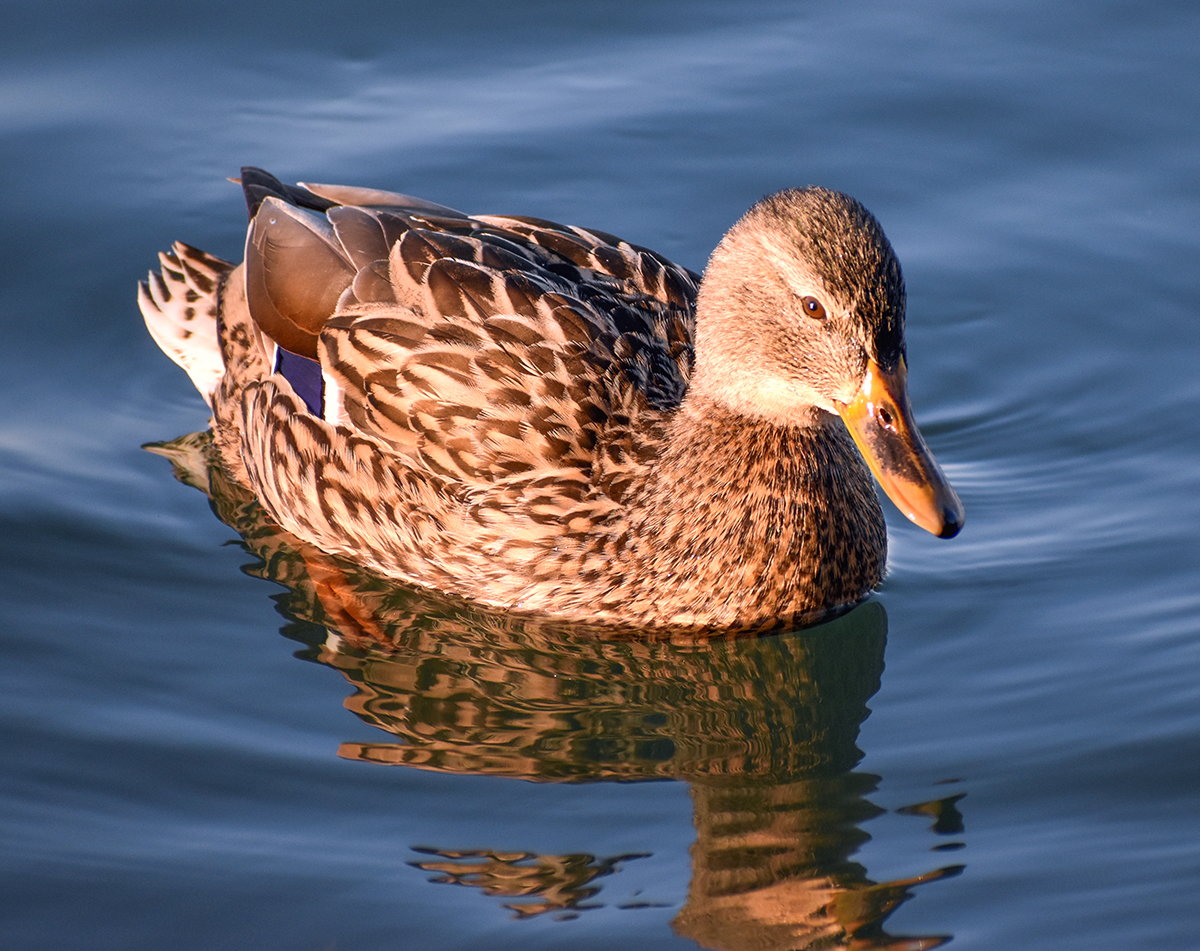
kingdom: Animalia
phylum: Chordata
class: Aves
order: Anseriformes
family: Anatidae
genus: Anas
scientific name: Anas platyrhynchos
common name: Mallard
